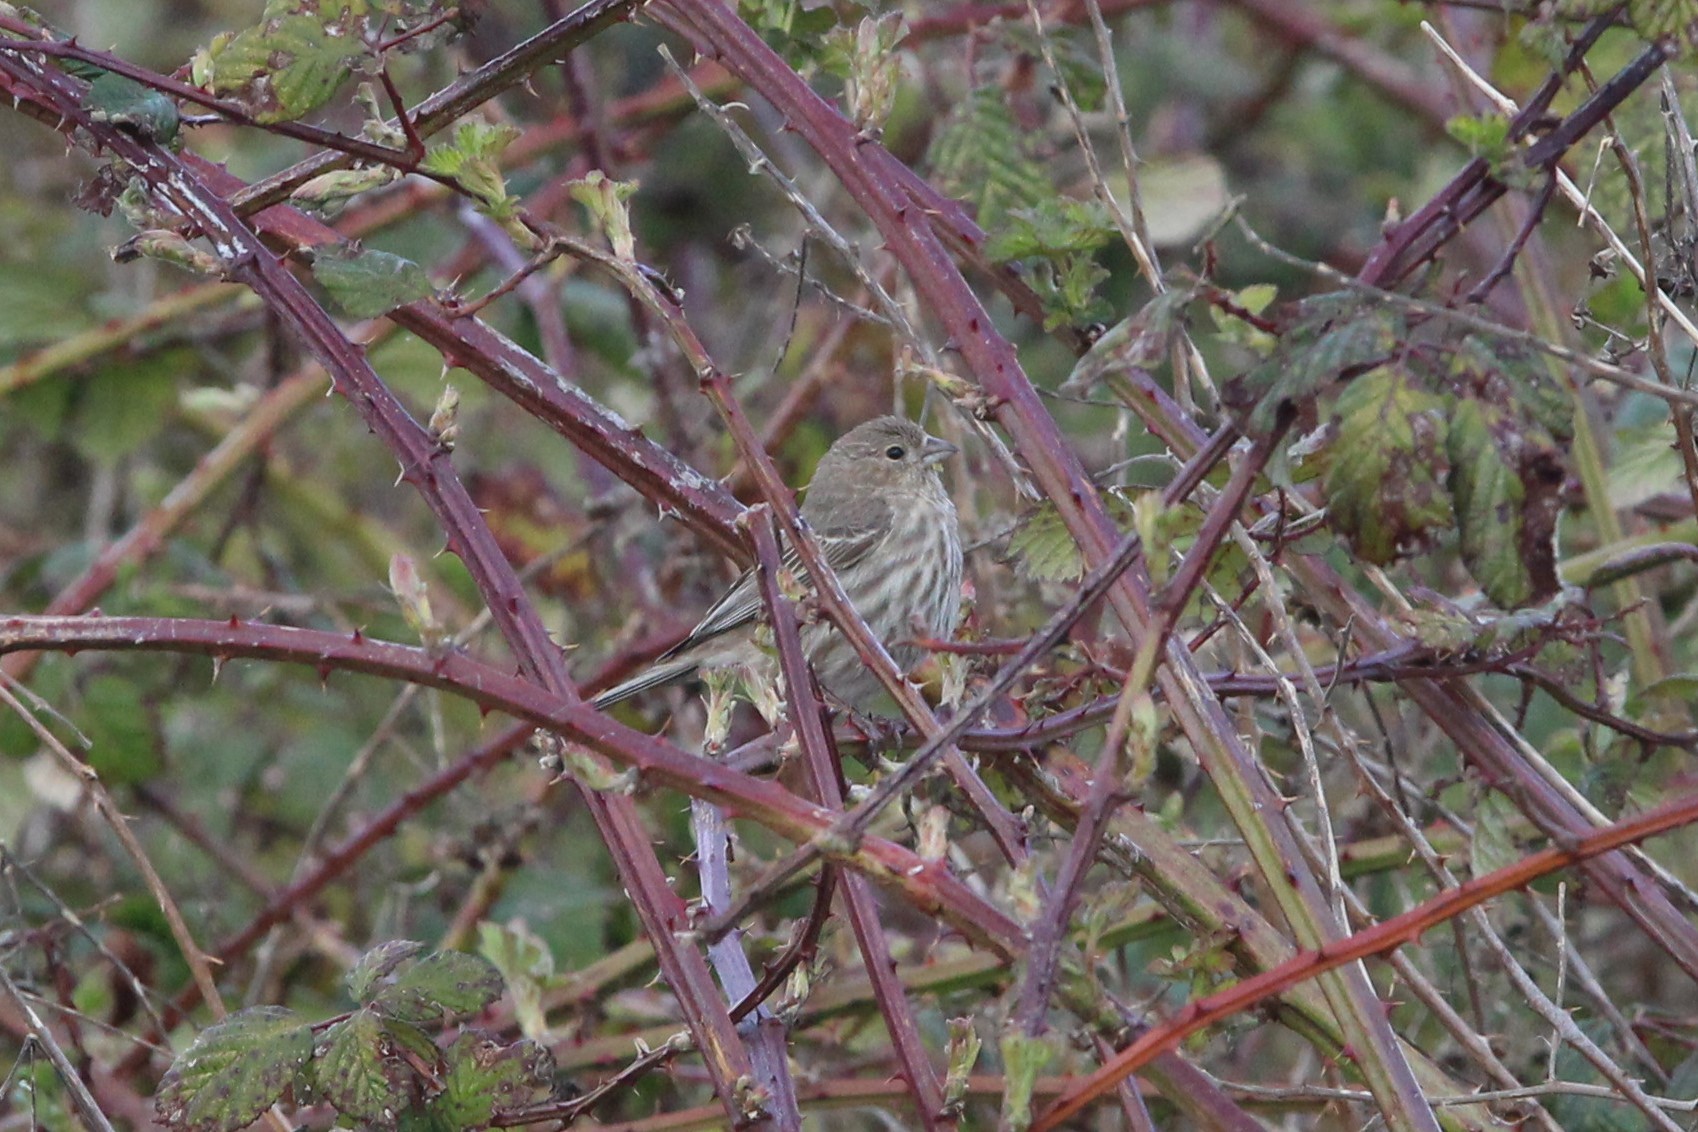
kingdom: Animalia
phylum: Chordata
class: Aves
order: Passeriformes
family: Fringillidae
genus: Haemorhous
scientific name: Haemorhous mexicanus
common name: House finch
